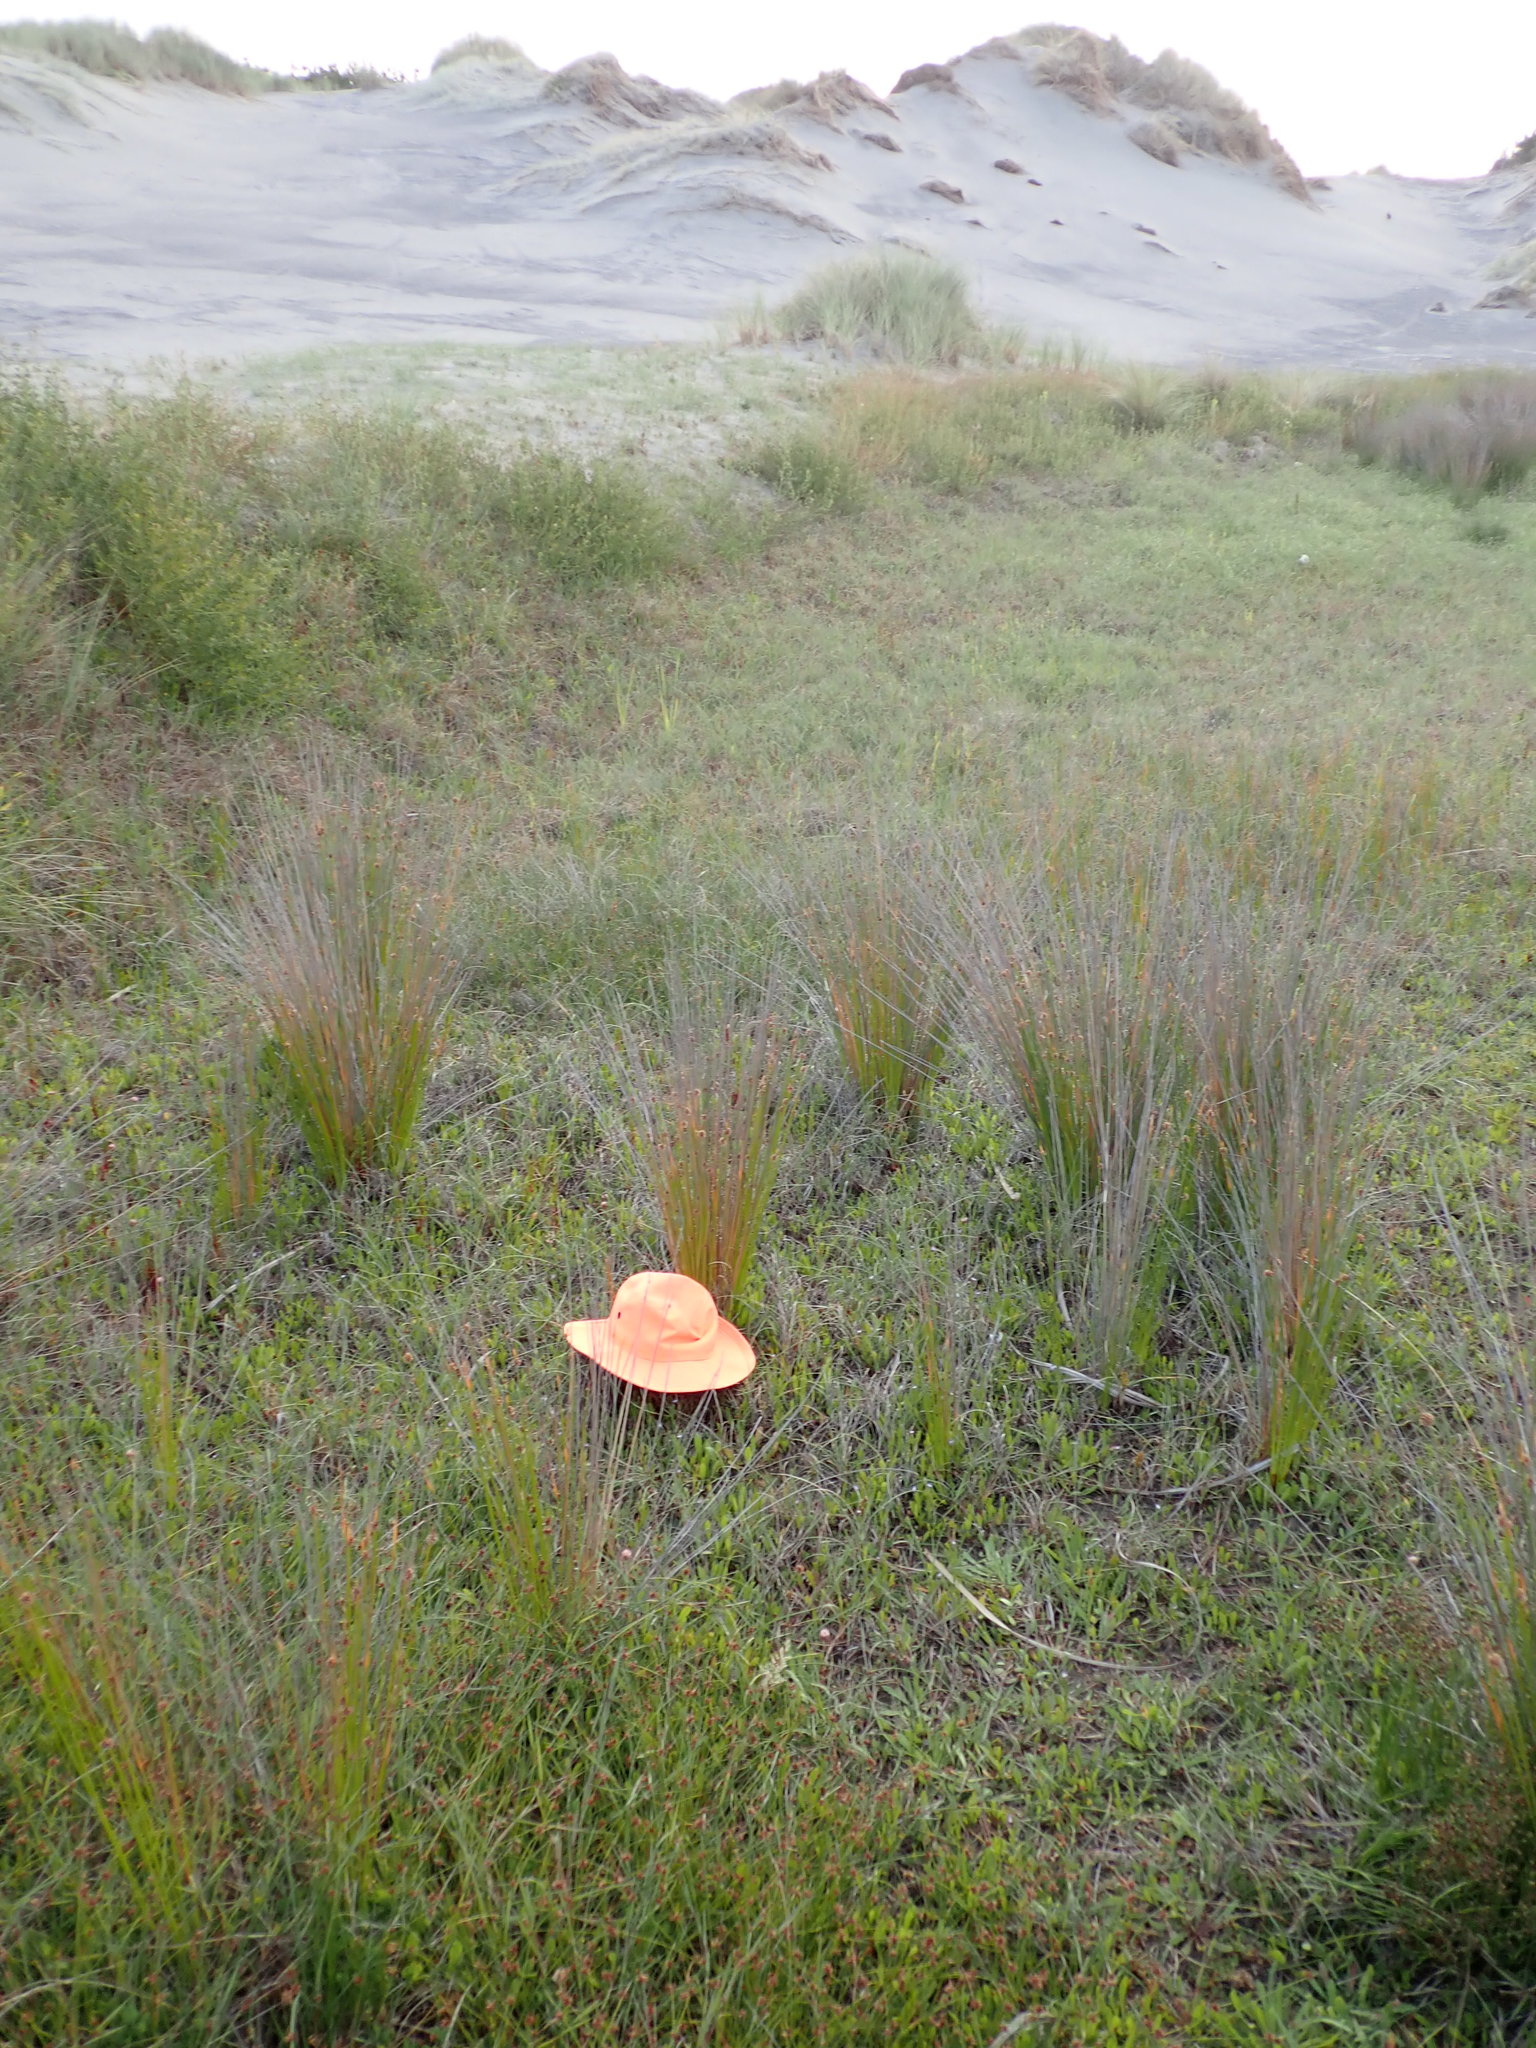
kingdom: Plantae
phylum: Tracheophyta
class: Magnoliopsida
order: Asterales
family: Campanulaceae
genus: Lobelia
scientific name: Lobelia anceps
